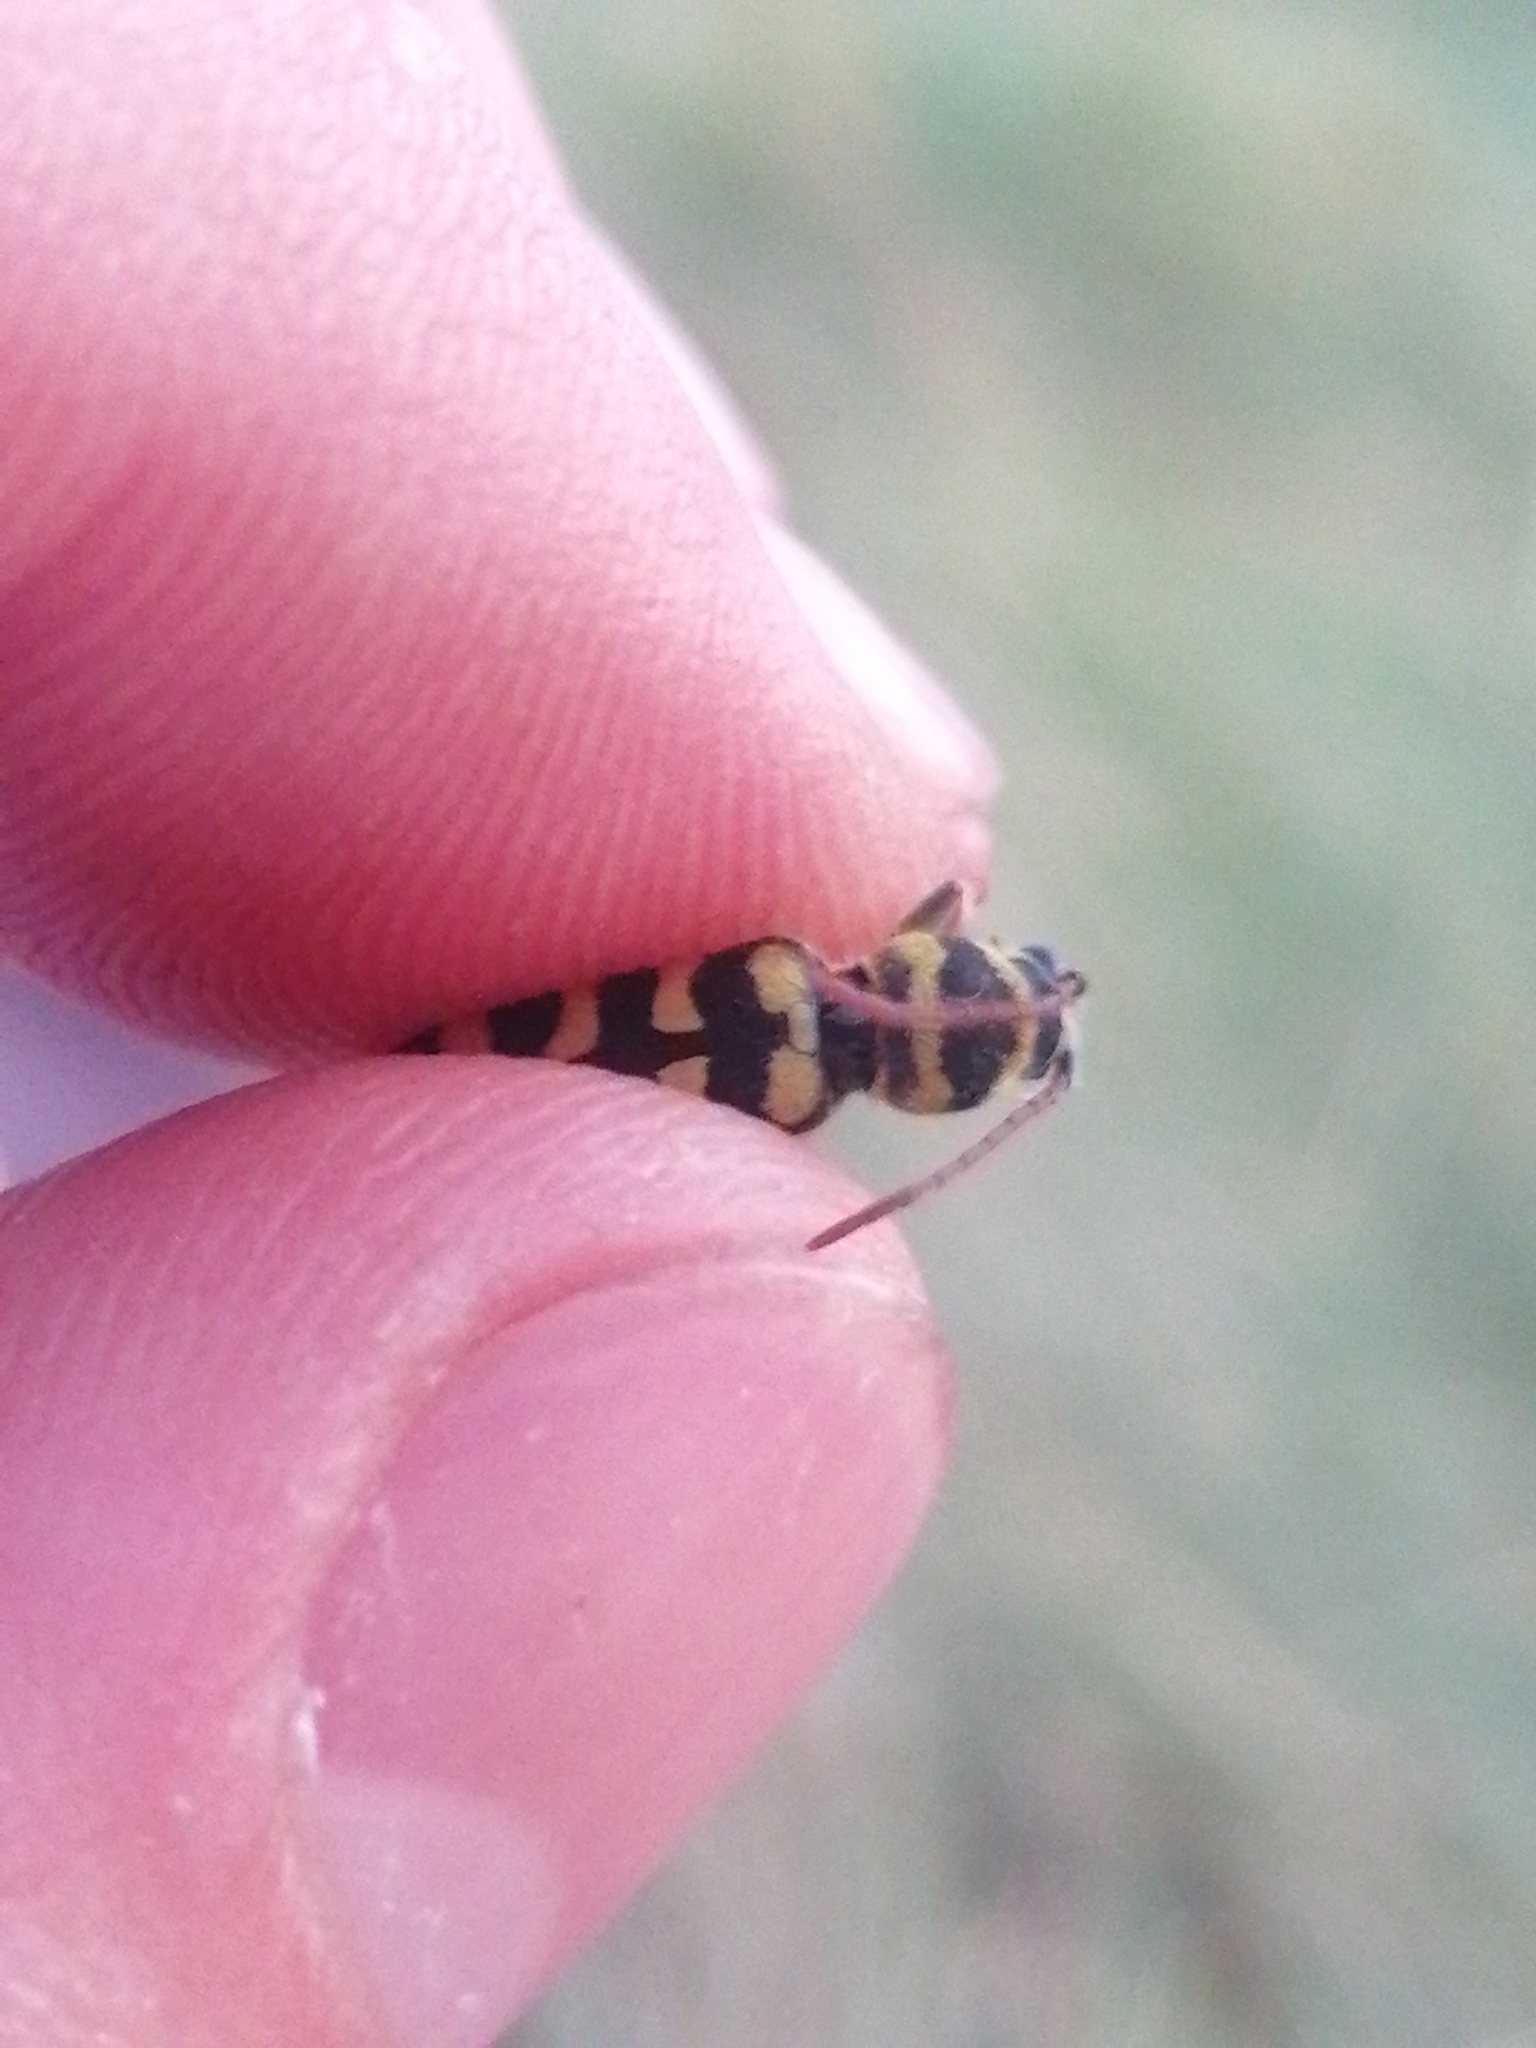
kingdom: Animalia
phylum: Arthropoda
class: Insecta
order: Coleoptera
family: Cerambycidae
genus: Plagionotus
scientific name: Plagionotus floralis
